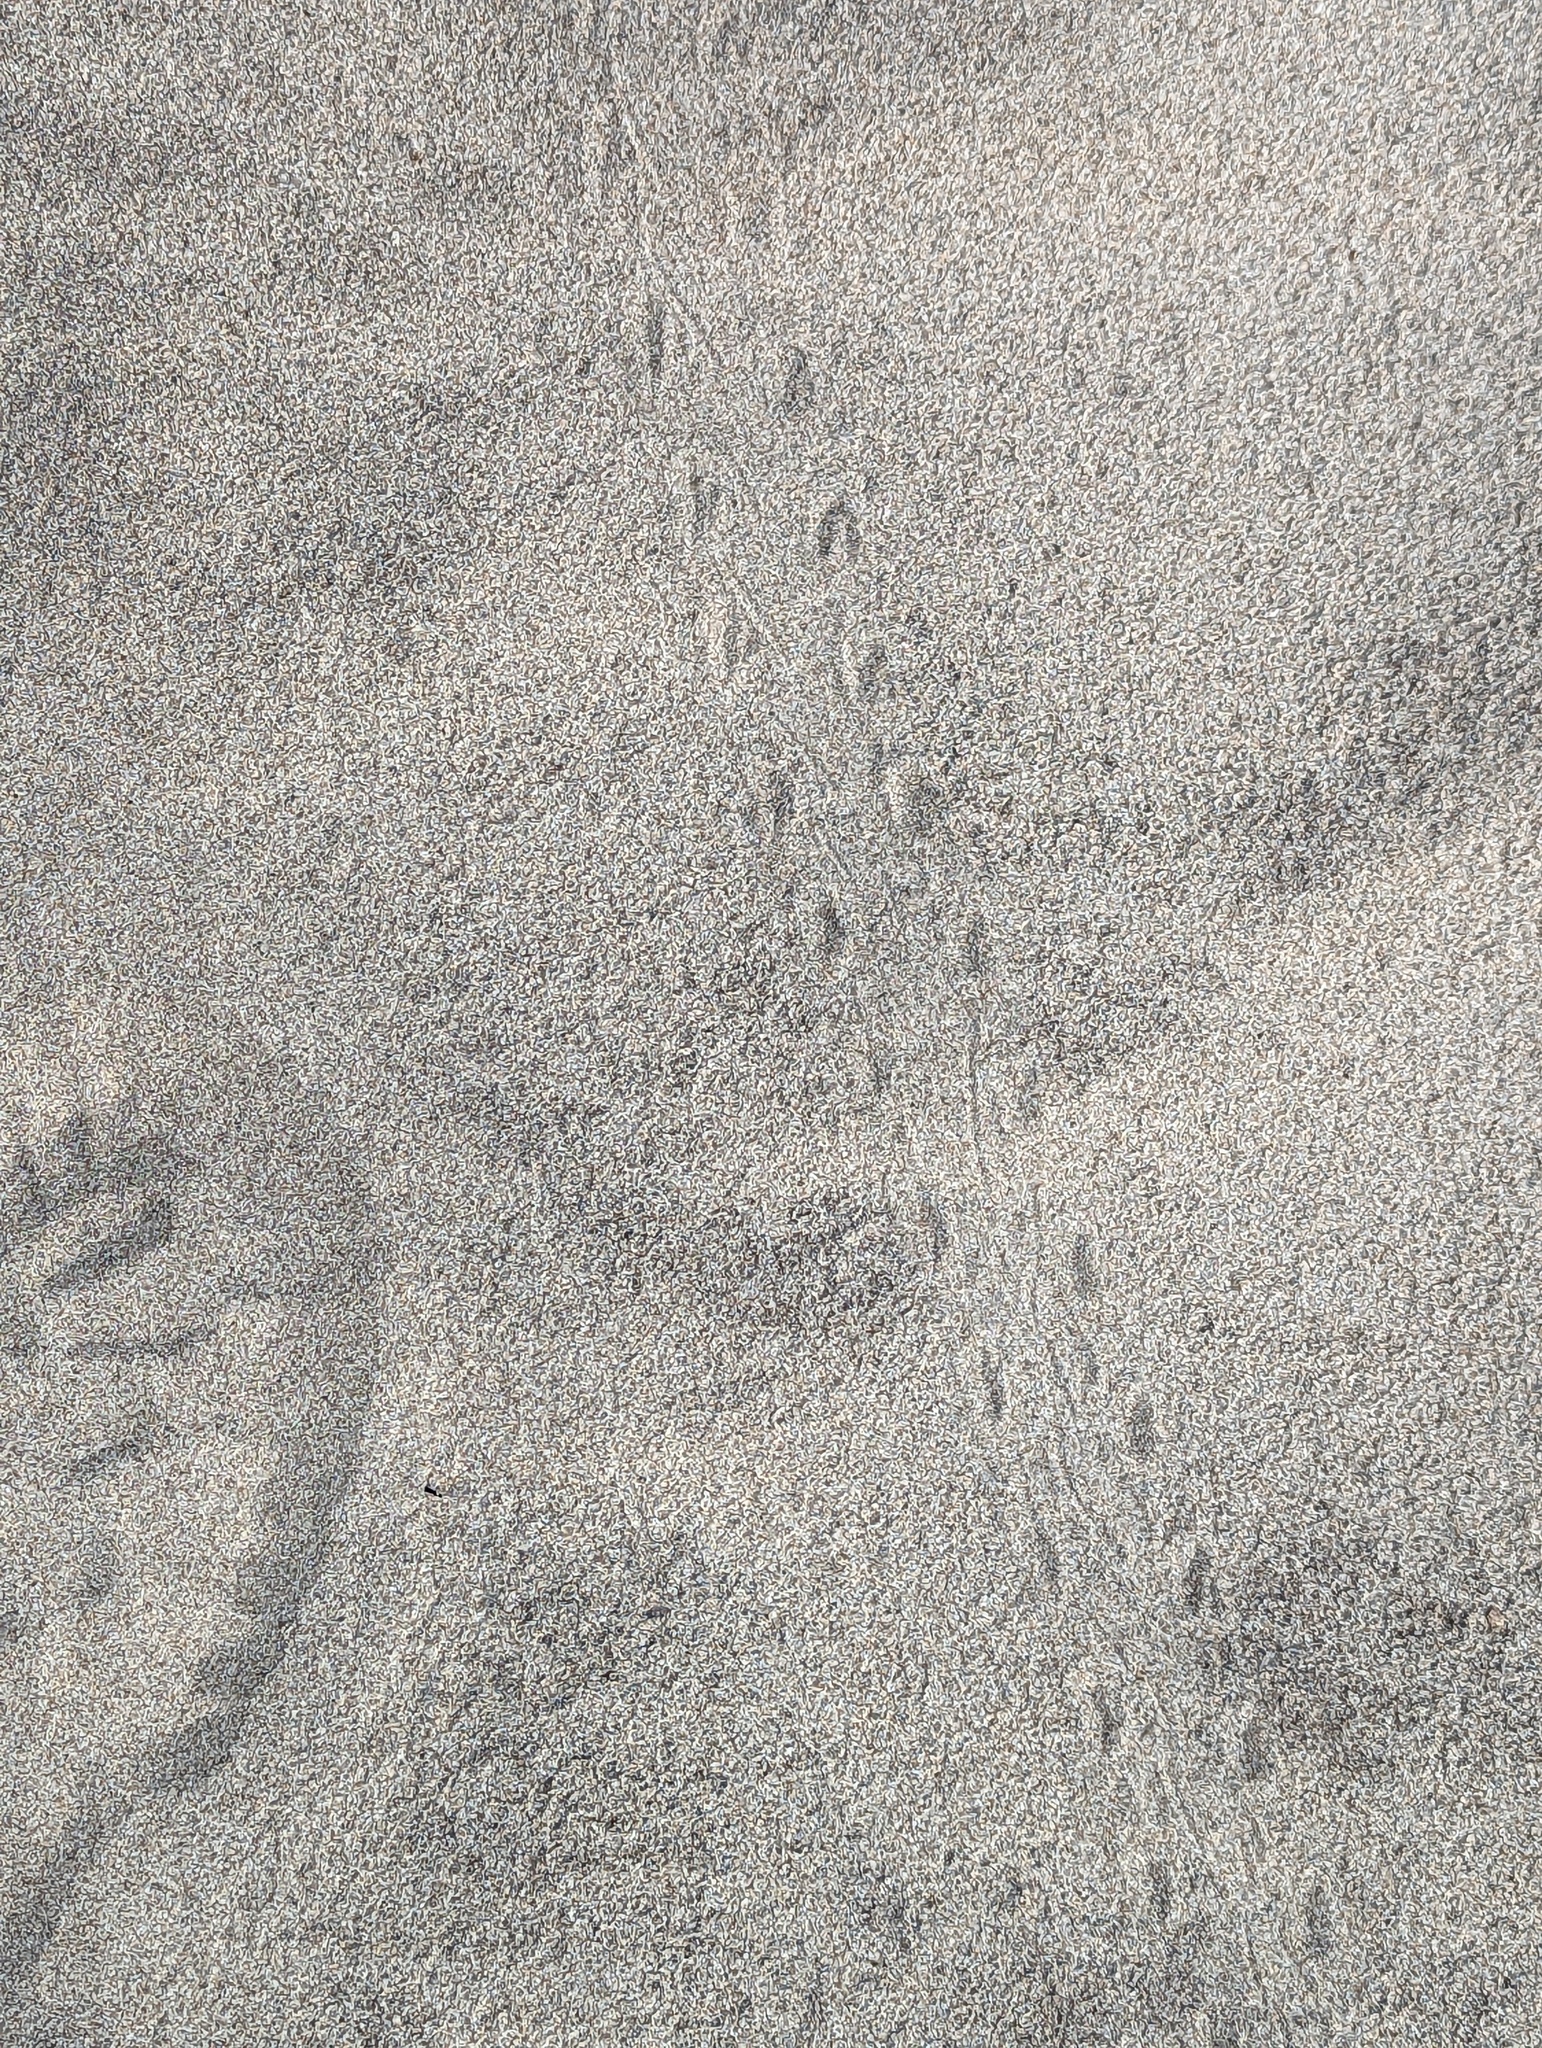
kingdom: Animalia
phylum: Chordata
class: Testudines
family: Emydidae
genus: Emys
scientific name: Emys blandingii
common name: Blanding's turtle
